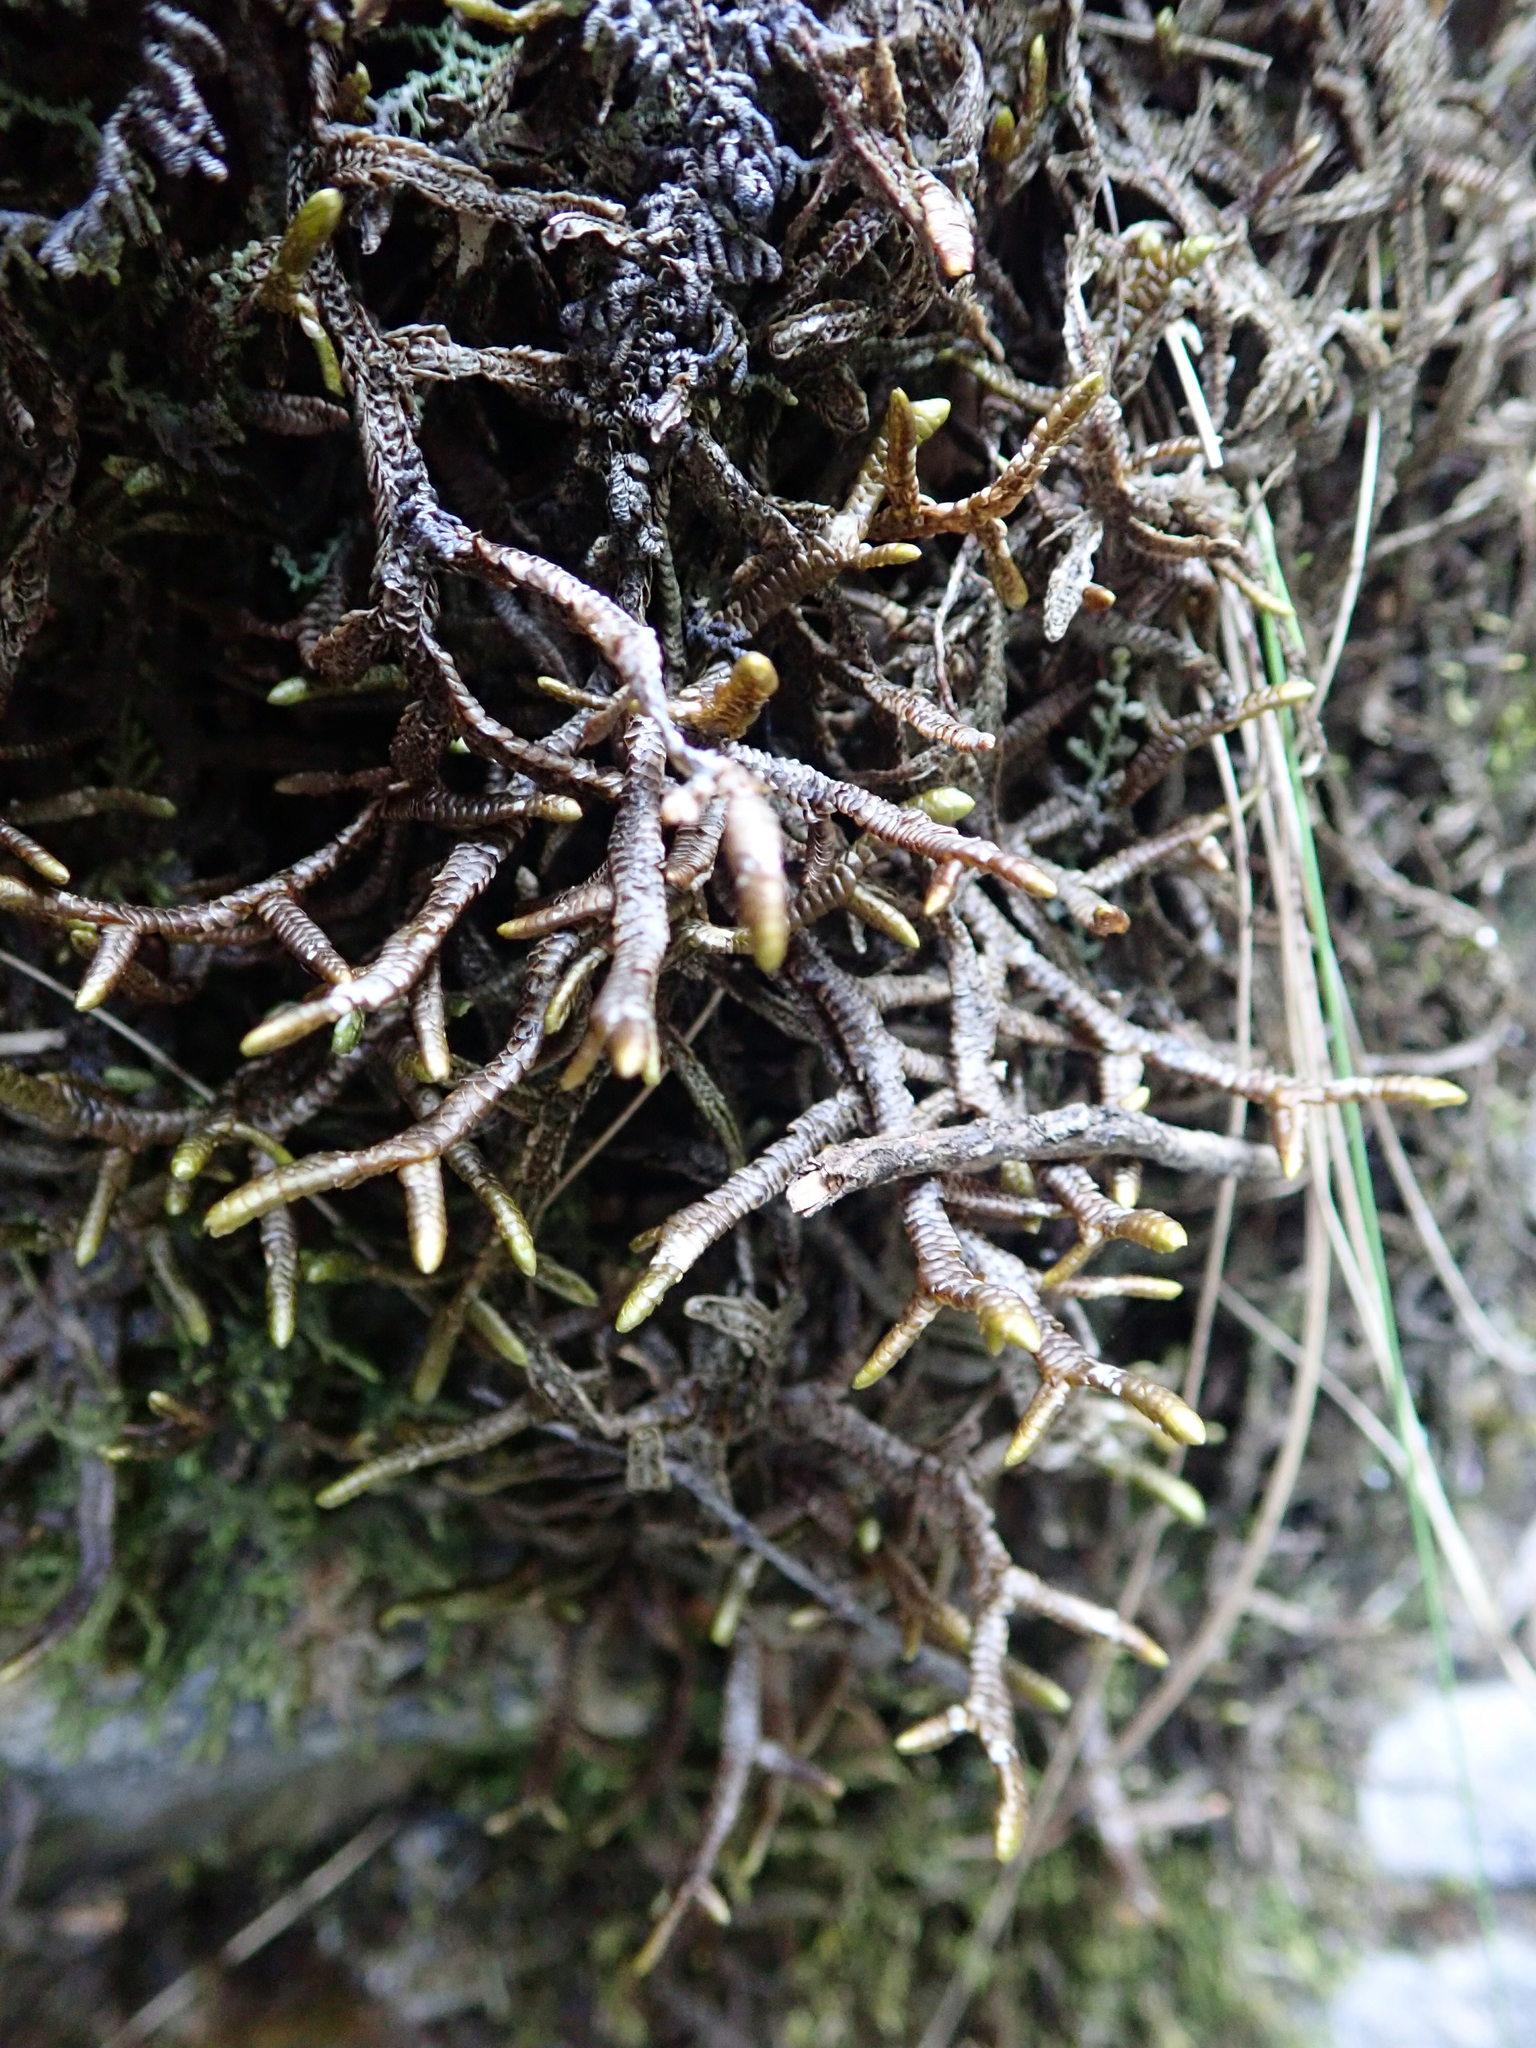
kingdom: Plantae
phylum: Marchantiophyta
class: Jungermanniopsida
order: Porellales
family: Porellaceae
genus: Porella
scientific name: Porella elegantula
